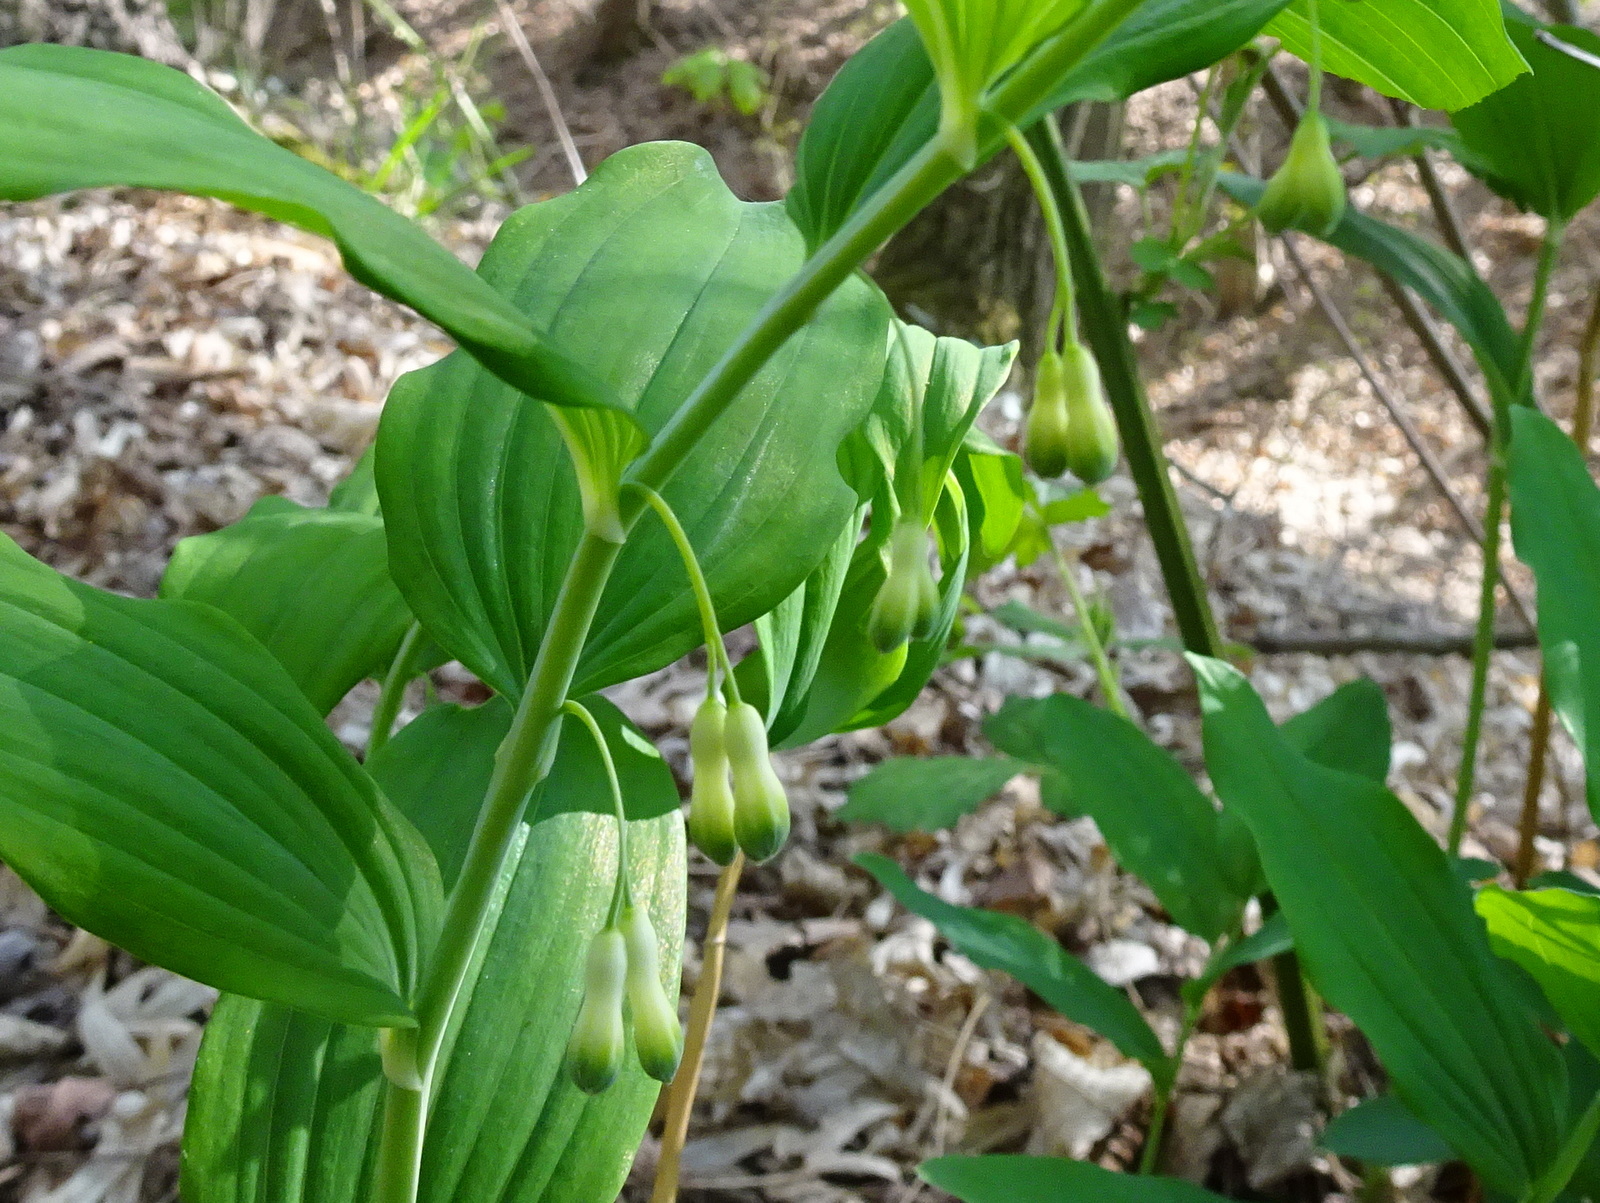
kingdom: Plantae
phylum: Tracheophyta
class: Liliopsida
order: Asparagales
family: Asparagaceae
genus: Polygonatum
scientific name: Polygonatum multiflorum
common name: Solomon's-seal
